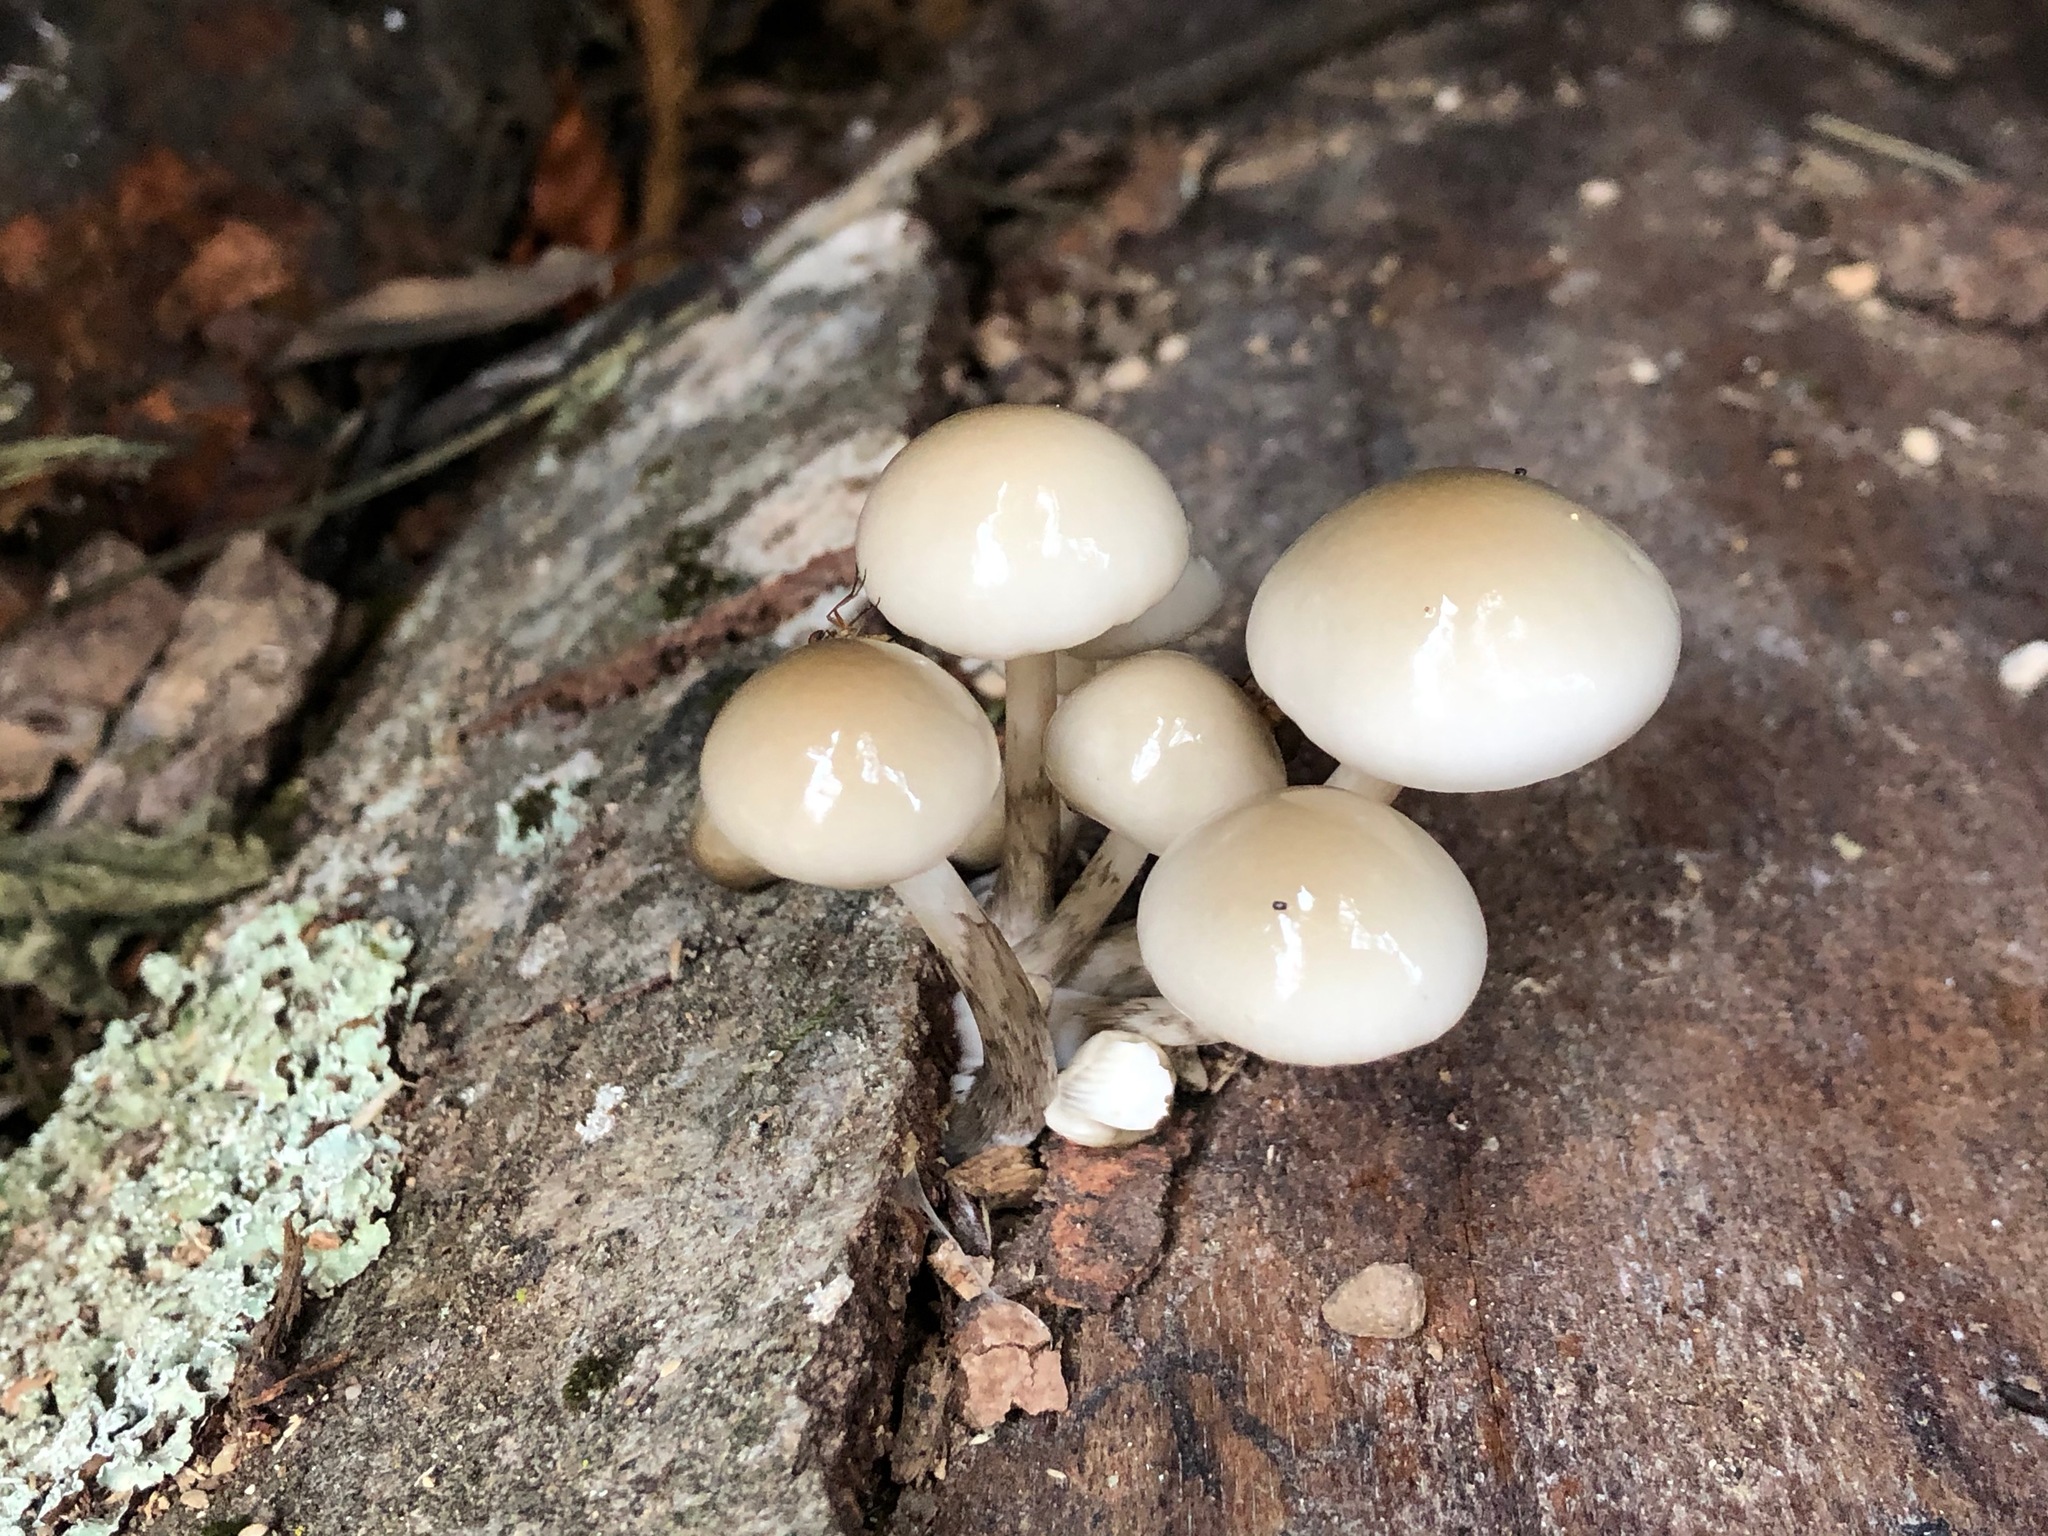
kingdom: Fungi
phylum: Basidiomycota
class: Agaricomycetes
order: Agaricales
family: Physalacriaceae
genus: Mucidula
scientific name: Mucidula mucida
